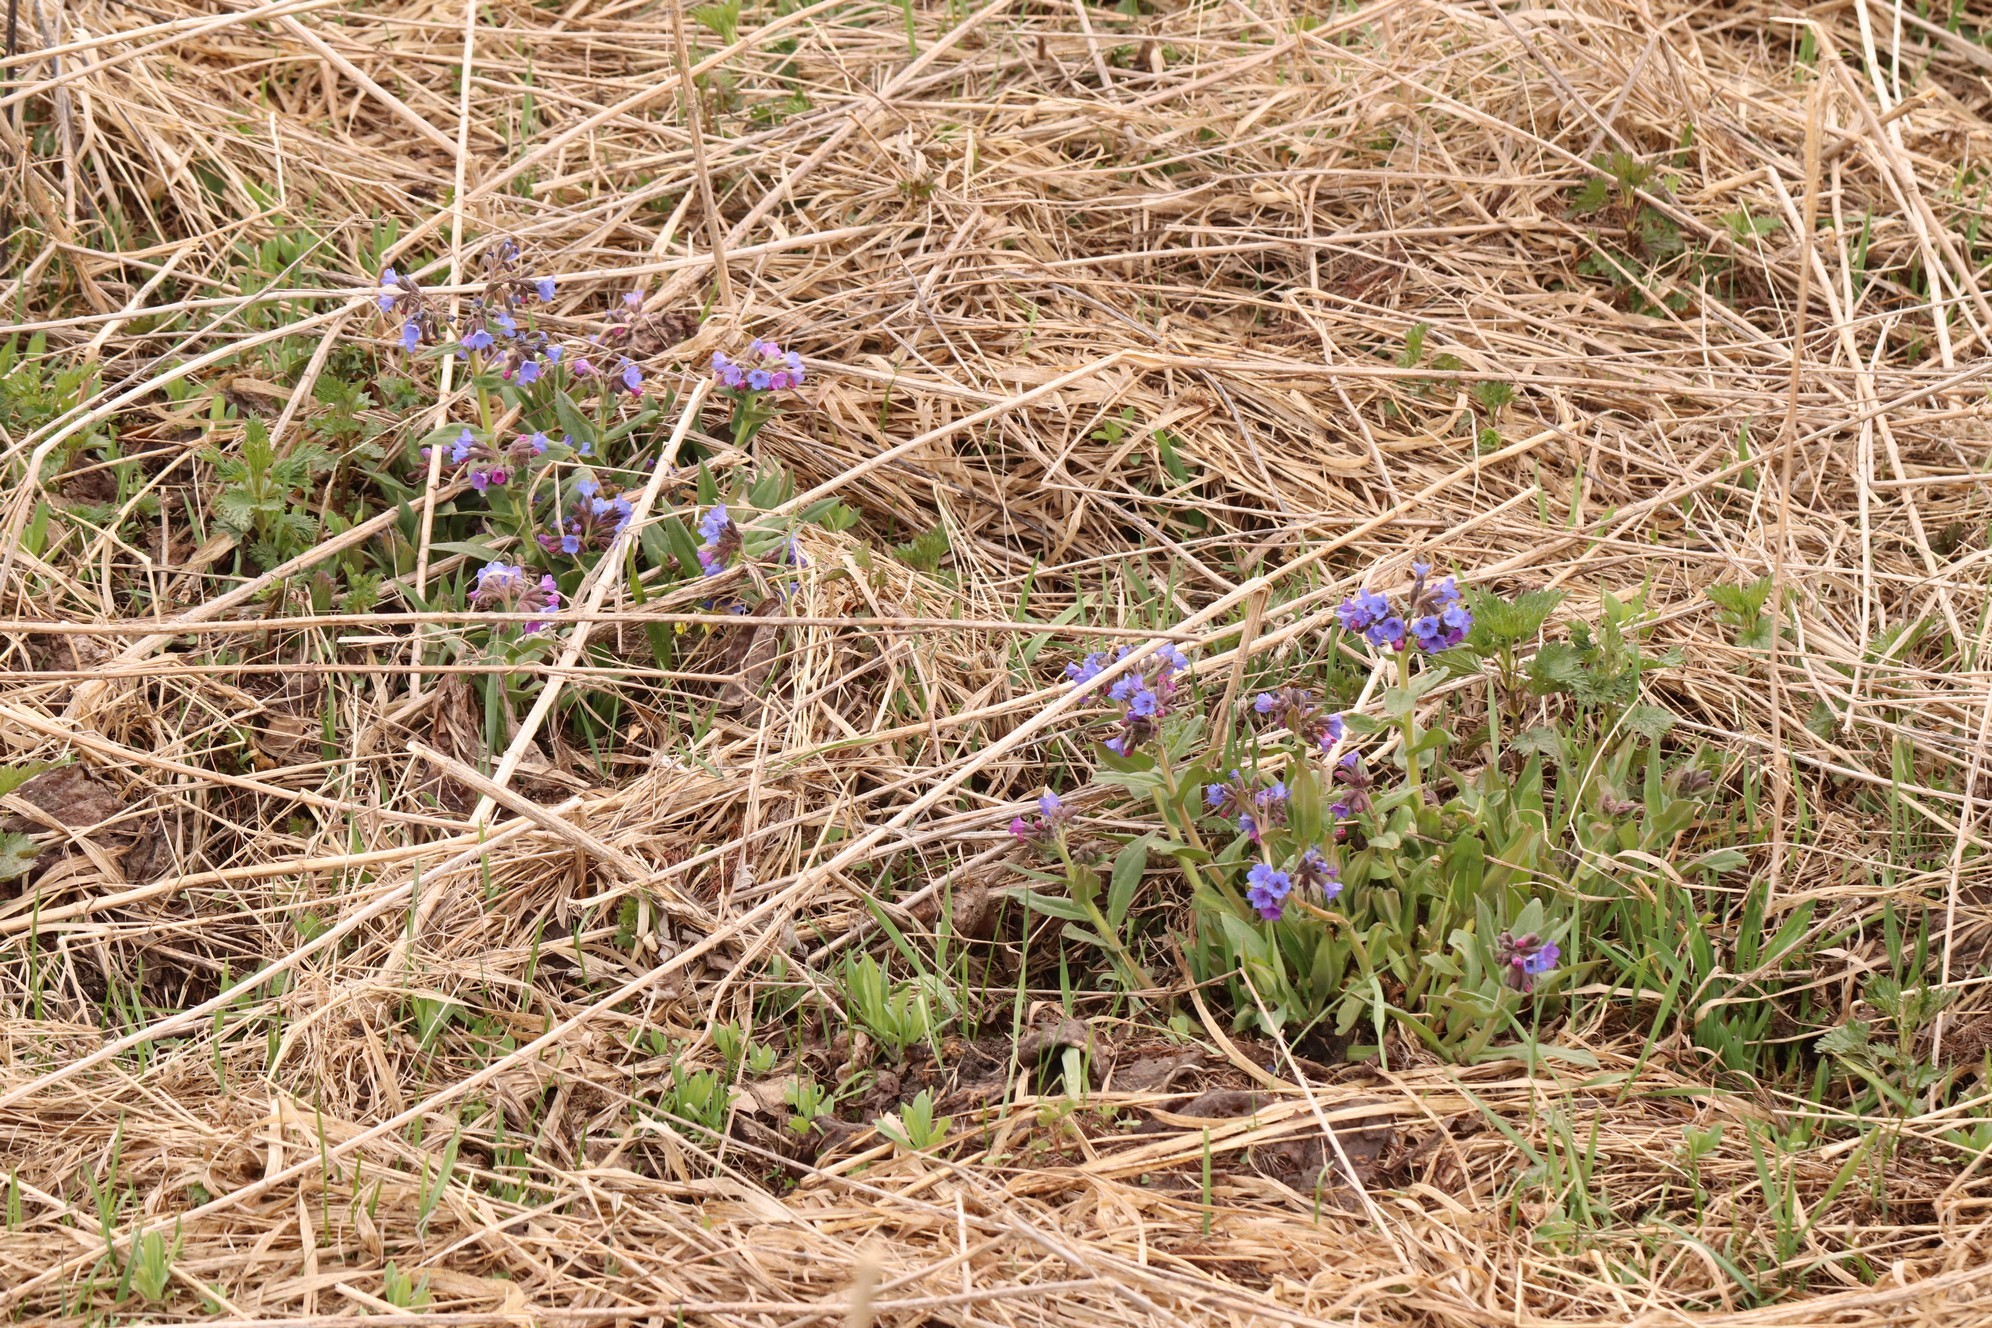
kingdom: Plantae
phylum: Tracheophyta
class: Magnoliopsida
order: Boraginales
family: Boraginaceae
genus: Pulmonaria
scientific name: Pulmonaria mollis
